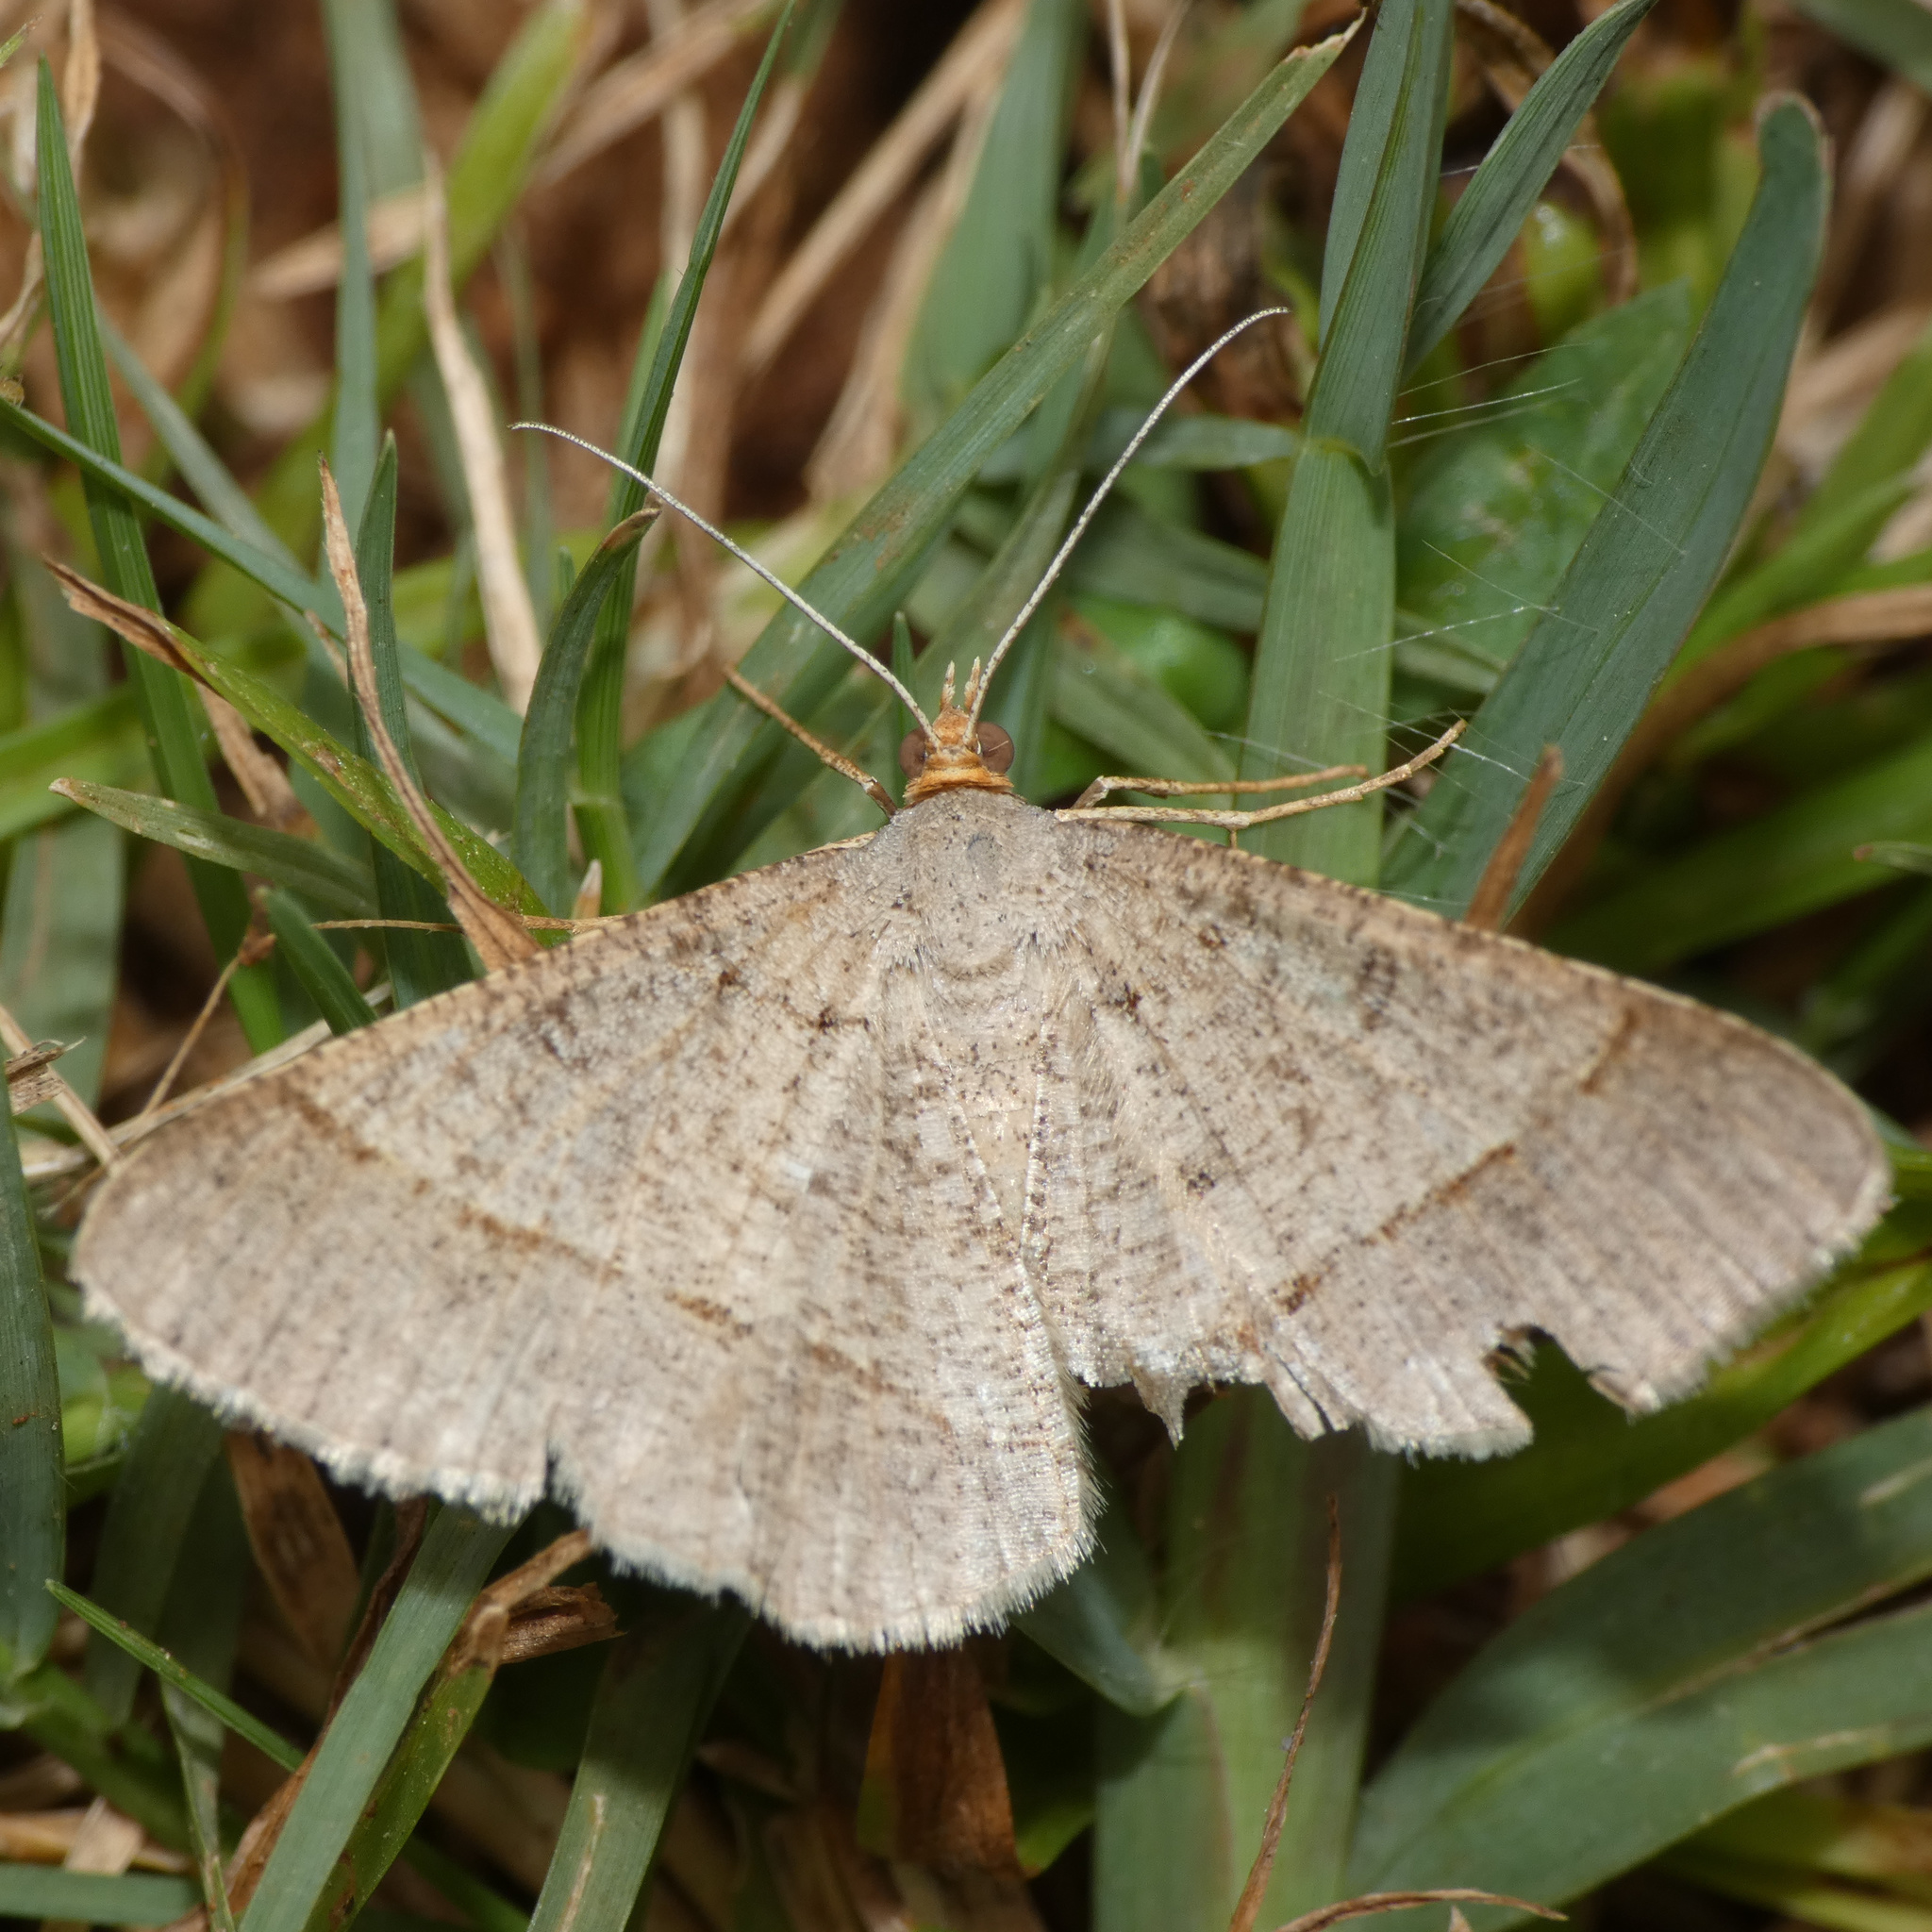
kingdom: Animalia
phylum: Arthropoda
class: Insecta
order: Lepidoptera
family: Geometridae
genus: Isturgia
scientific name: Isturgia deerraria
